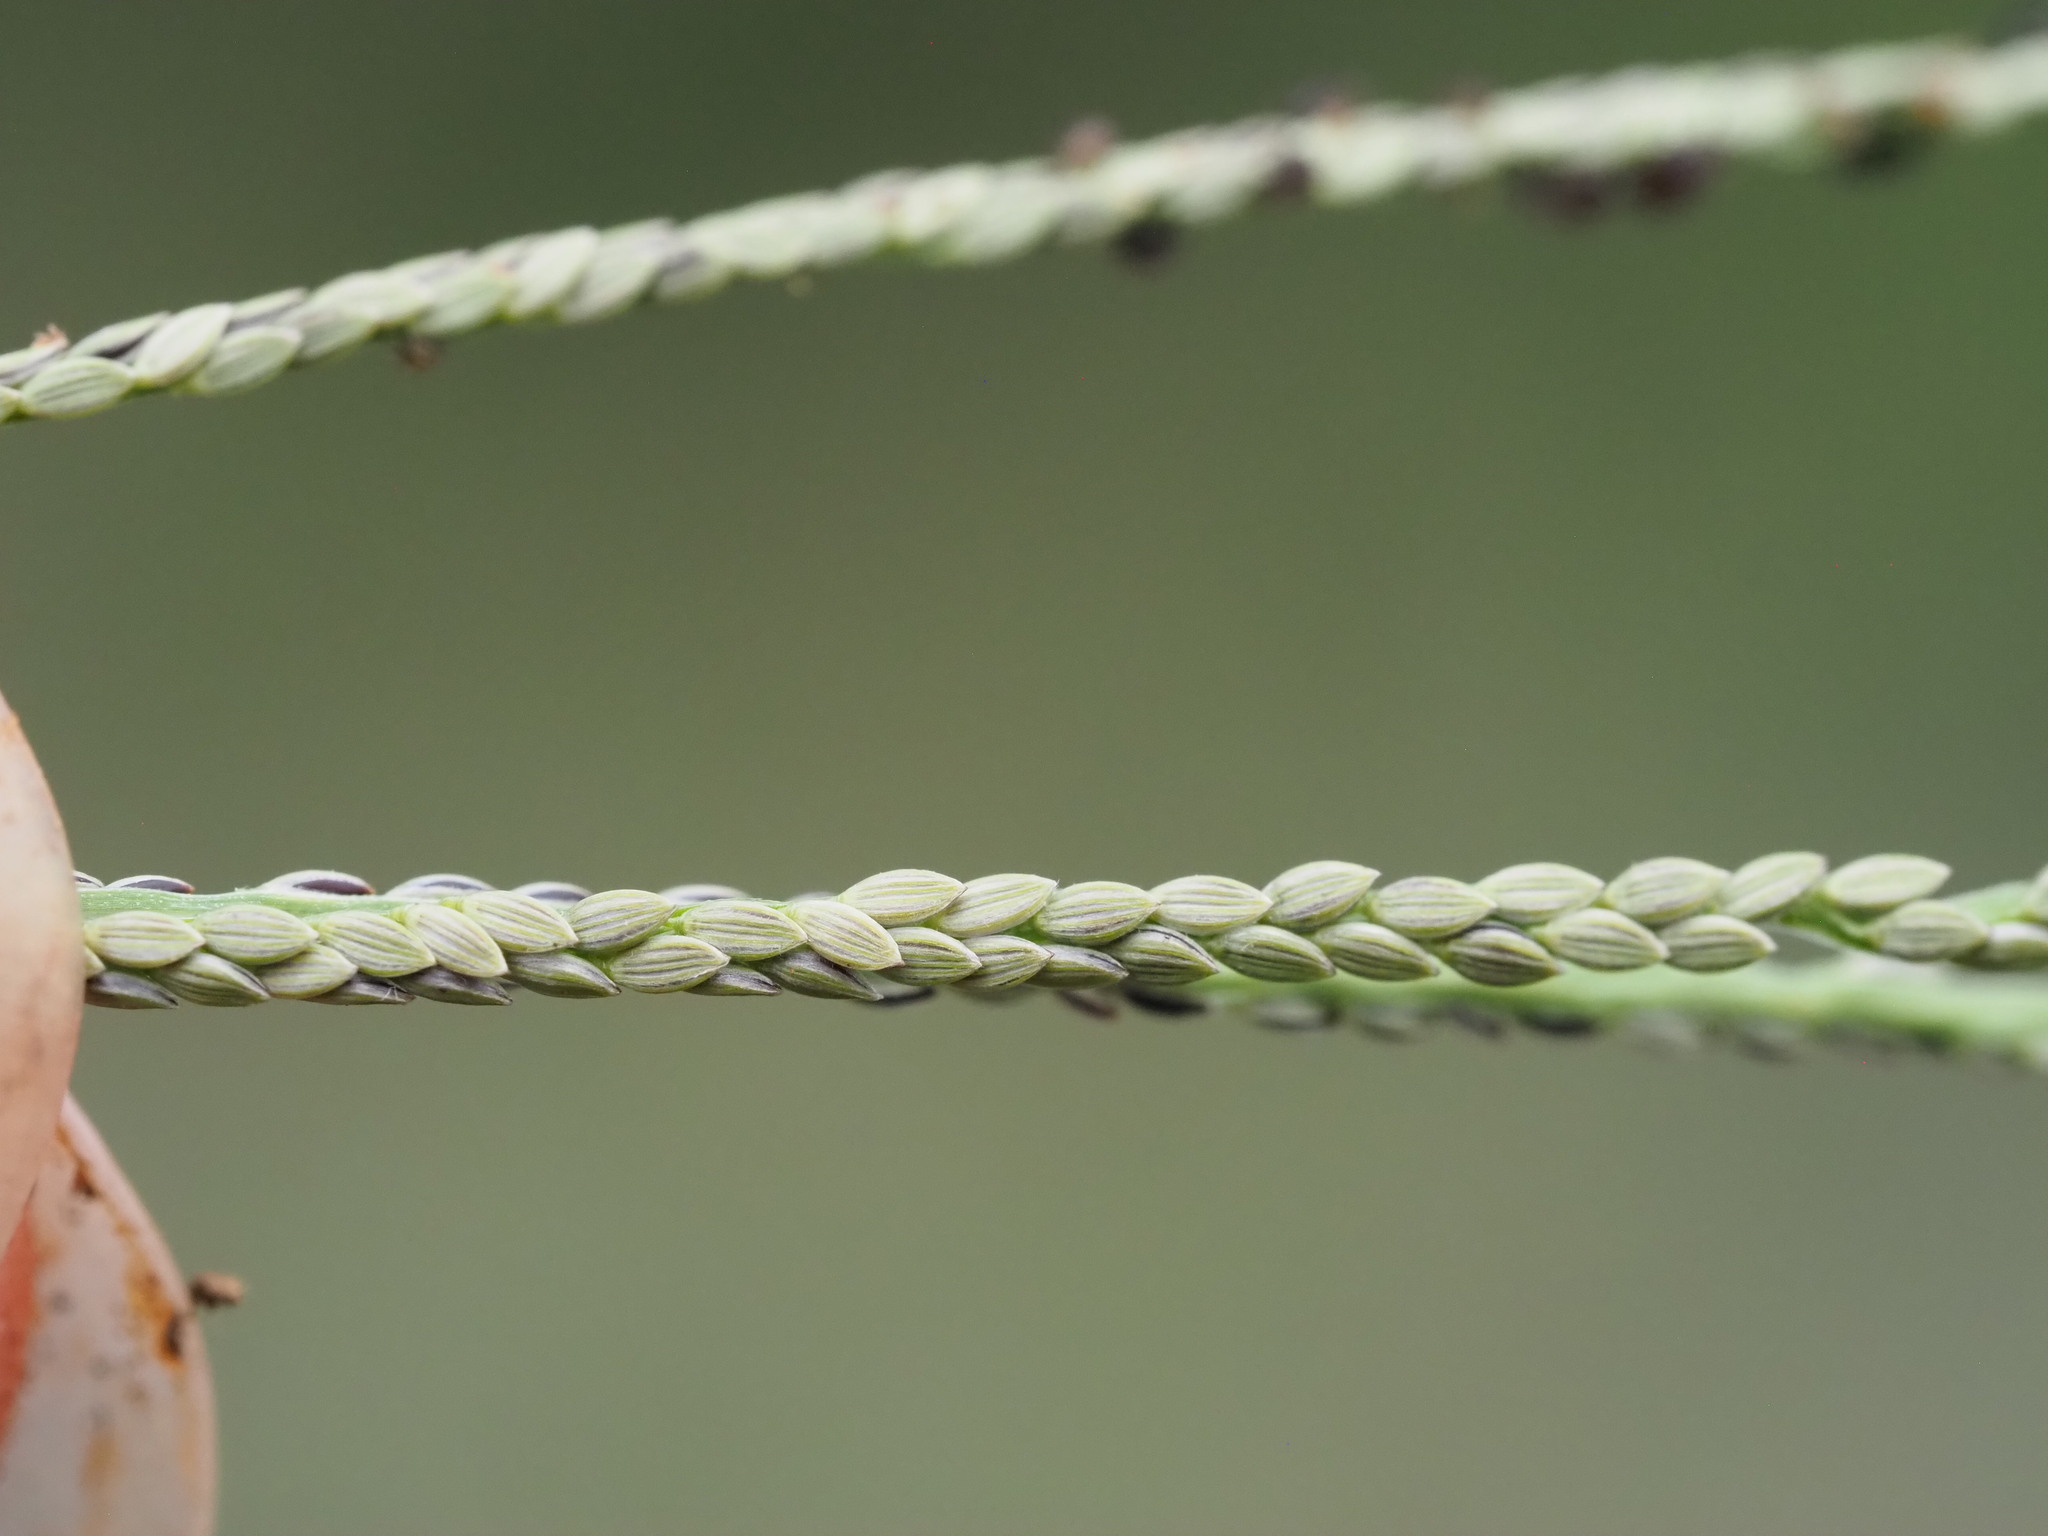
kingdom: Plantae
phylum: Tracheophyta
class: Liliopsida
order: Poales
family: Poaceae
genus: Digitaria
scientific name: Digitaria violascens
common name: Violet crabgrass
